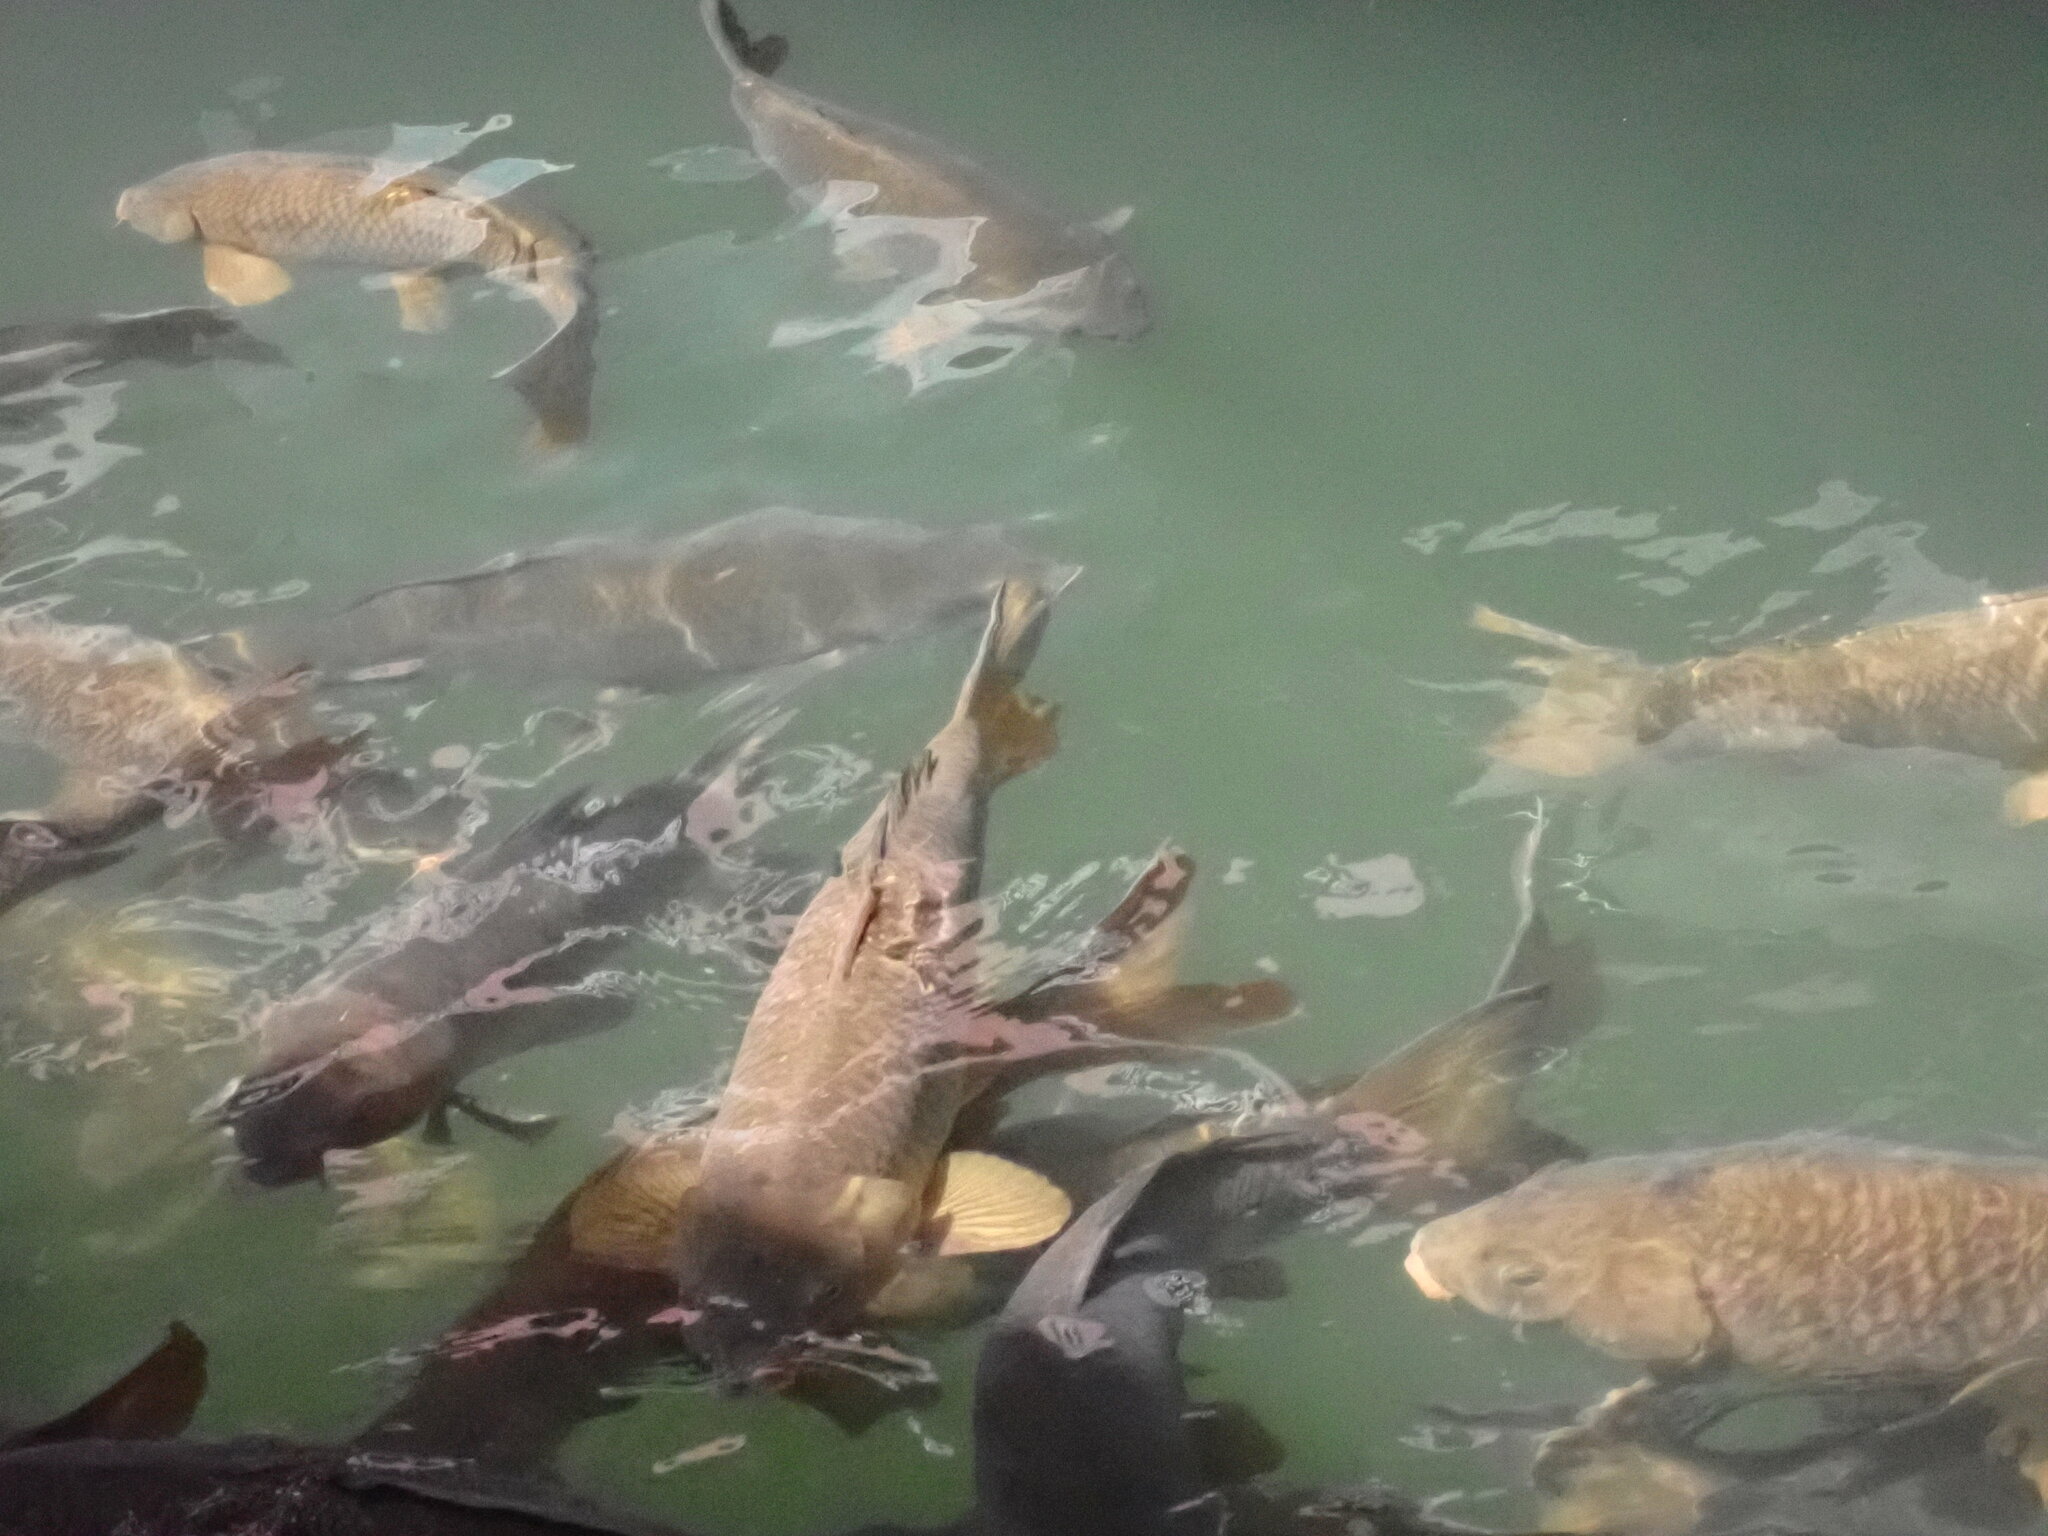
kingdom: Animalia
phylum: Chordata
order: Cypriniformes
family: Cyprinidae
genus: Cyprinus
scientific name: Cyprinus carpio
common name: Common carp
